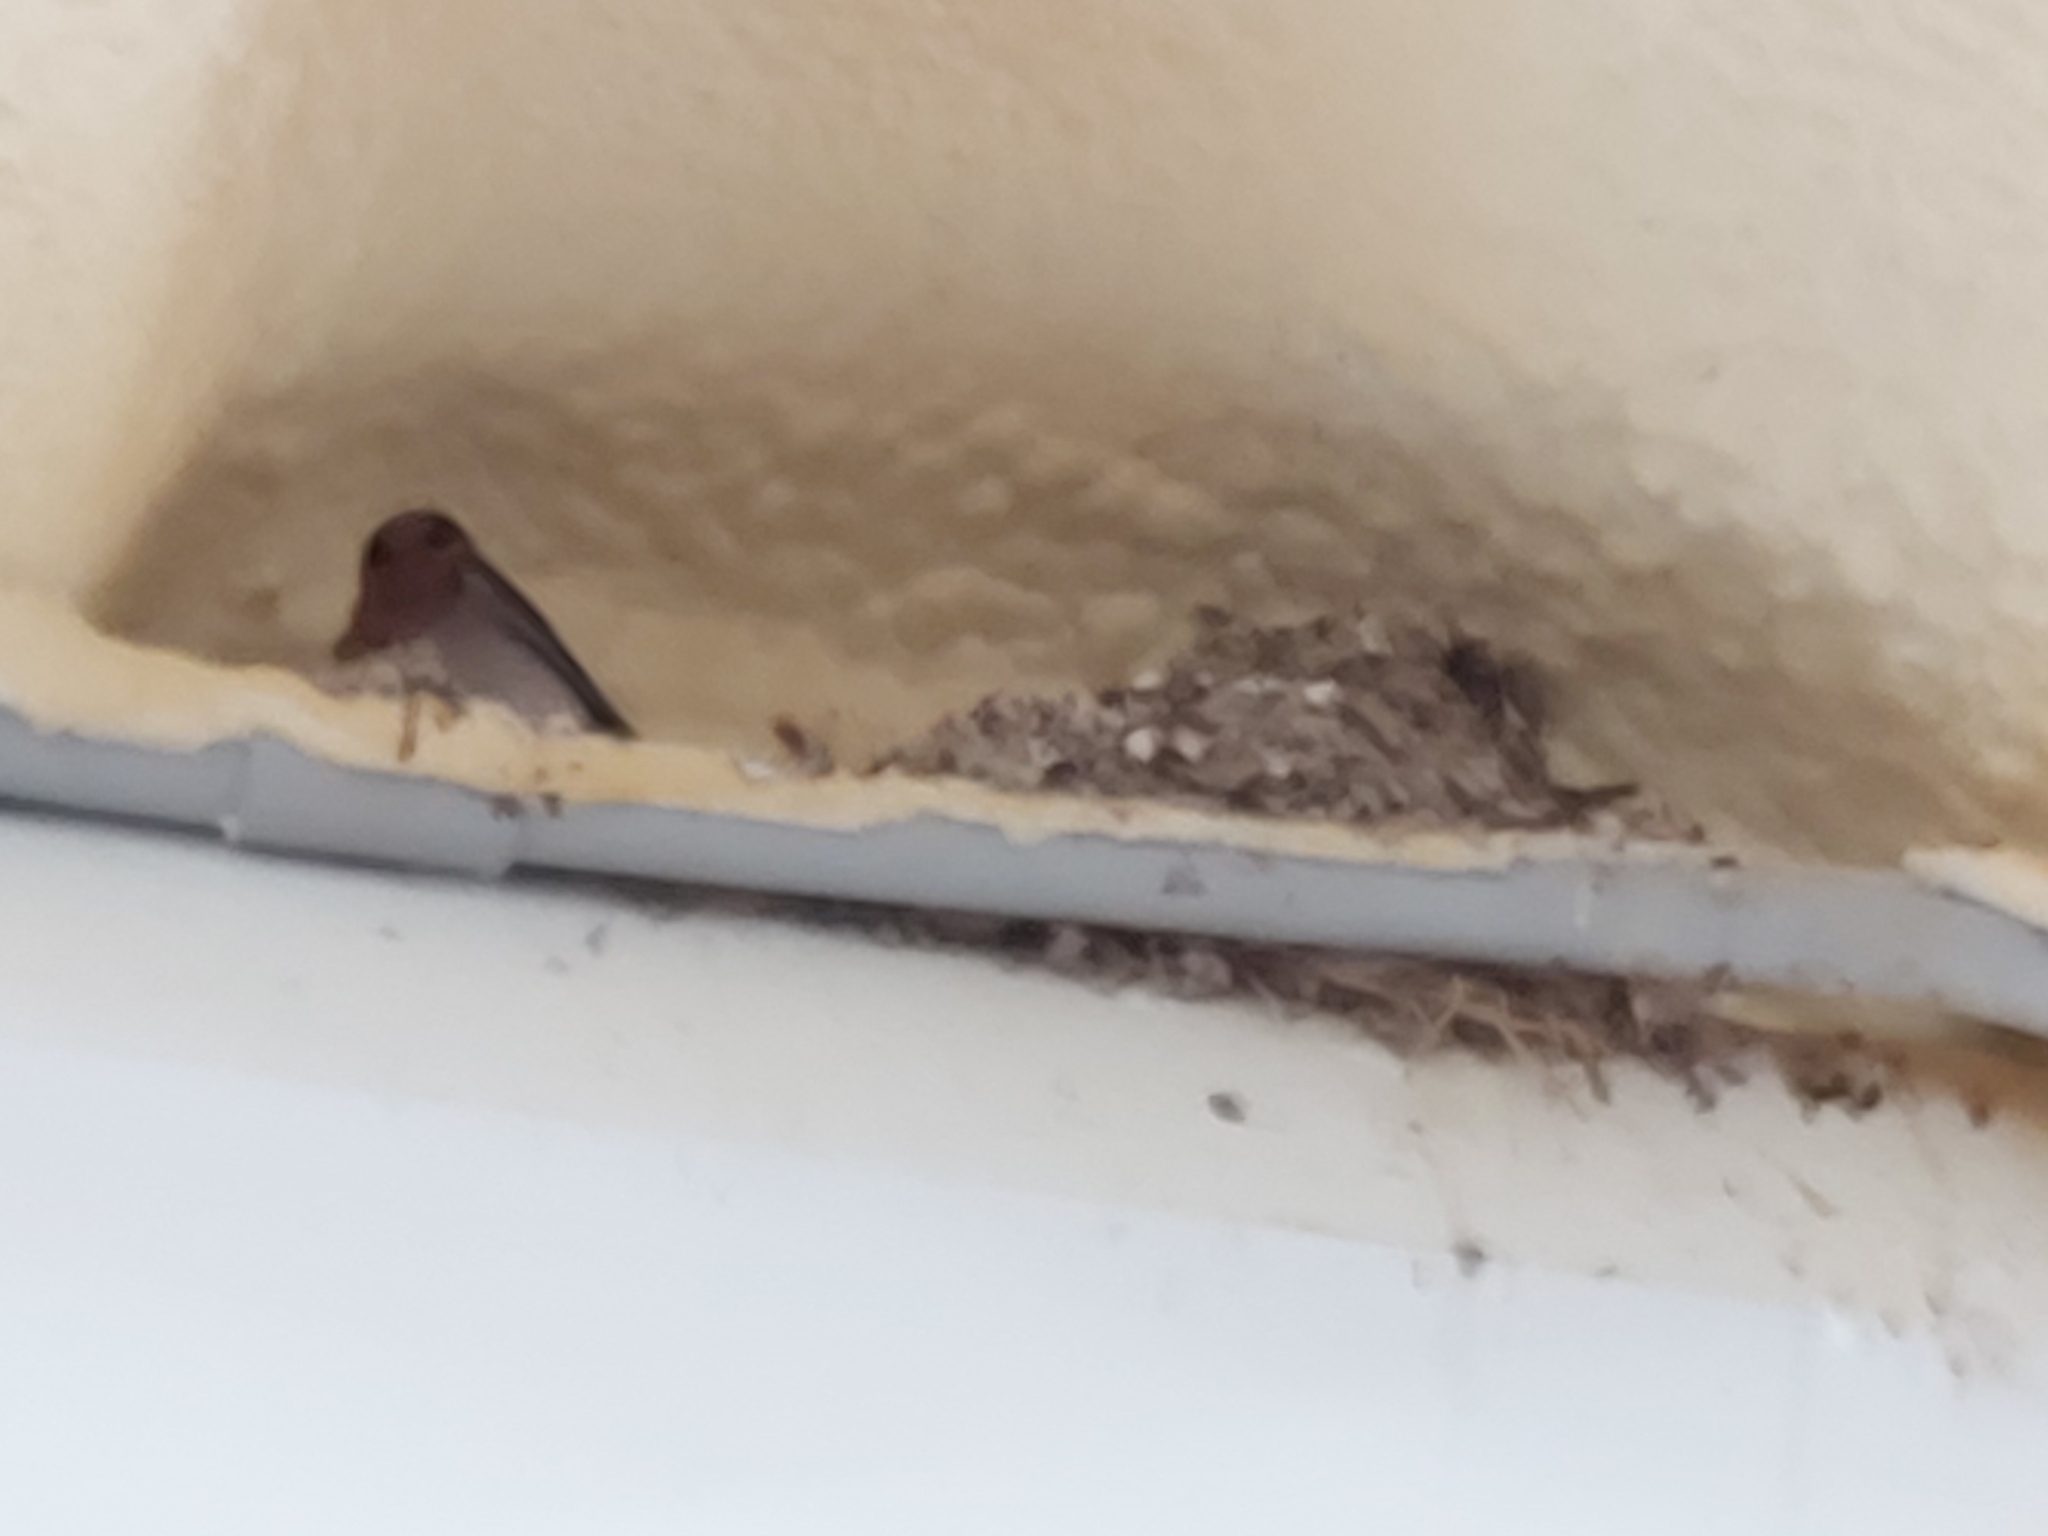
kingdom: Animalia
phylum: Chordata
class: Aves
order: Passeriformes
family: Hirundinidae
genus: Hirundo
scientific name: Hirundo neoxena
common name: Welcome swallow
